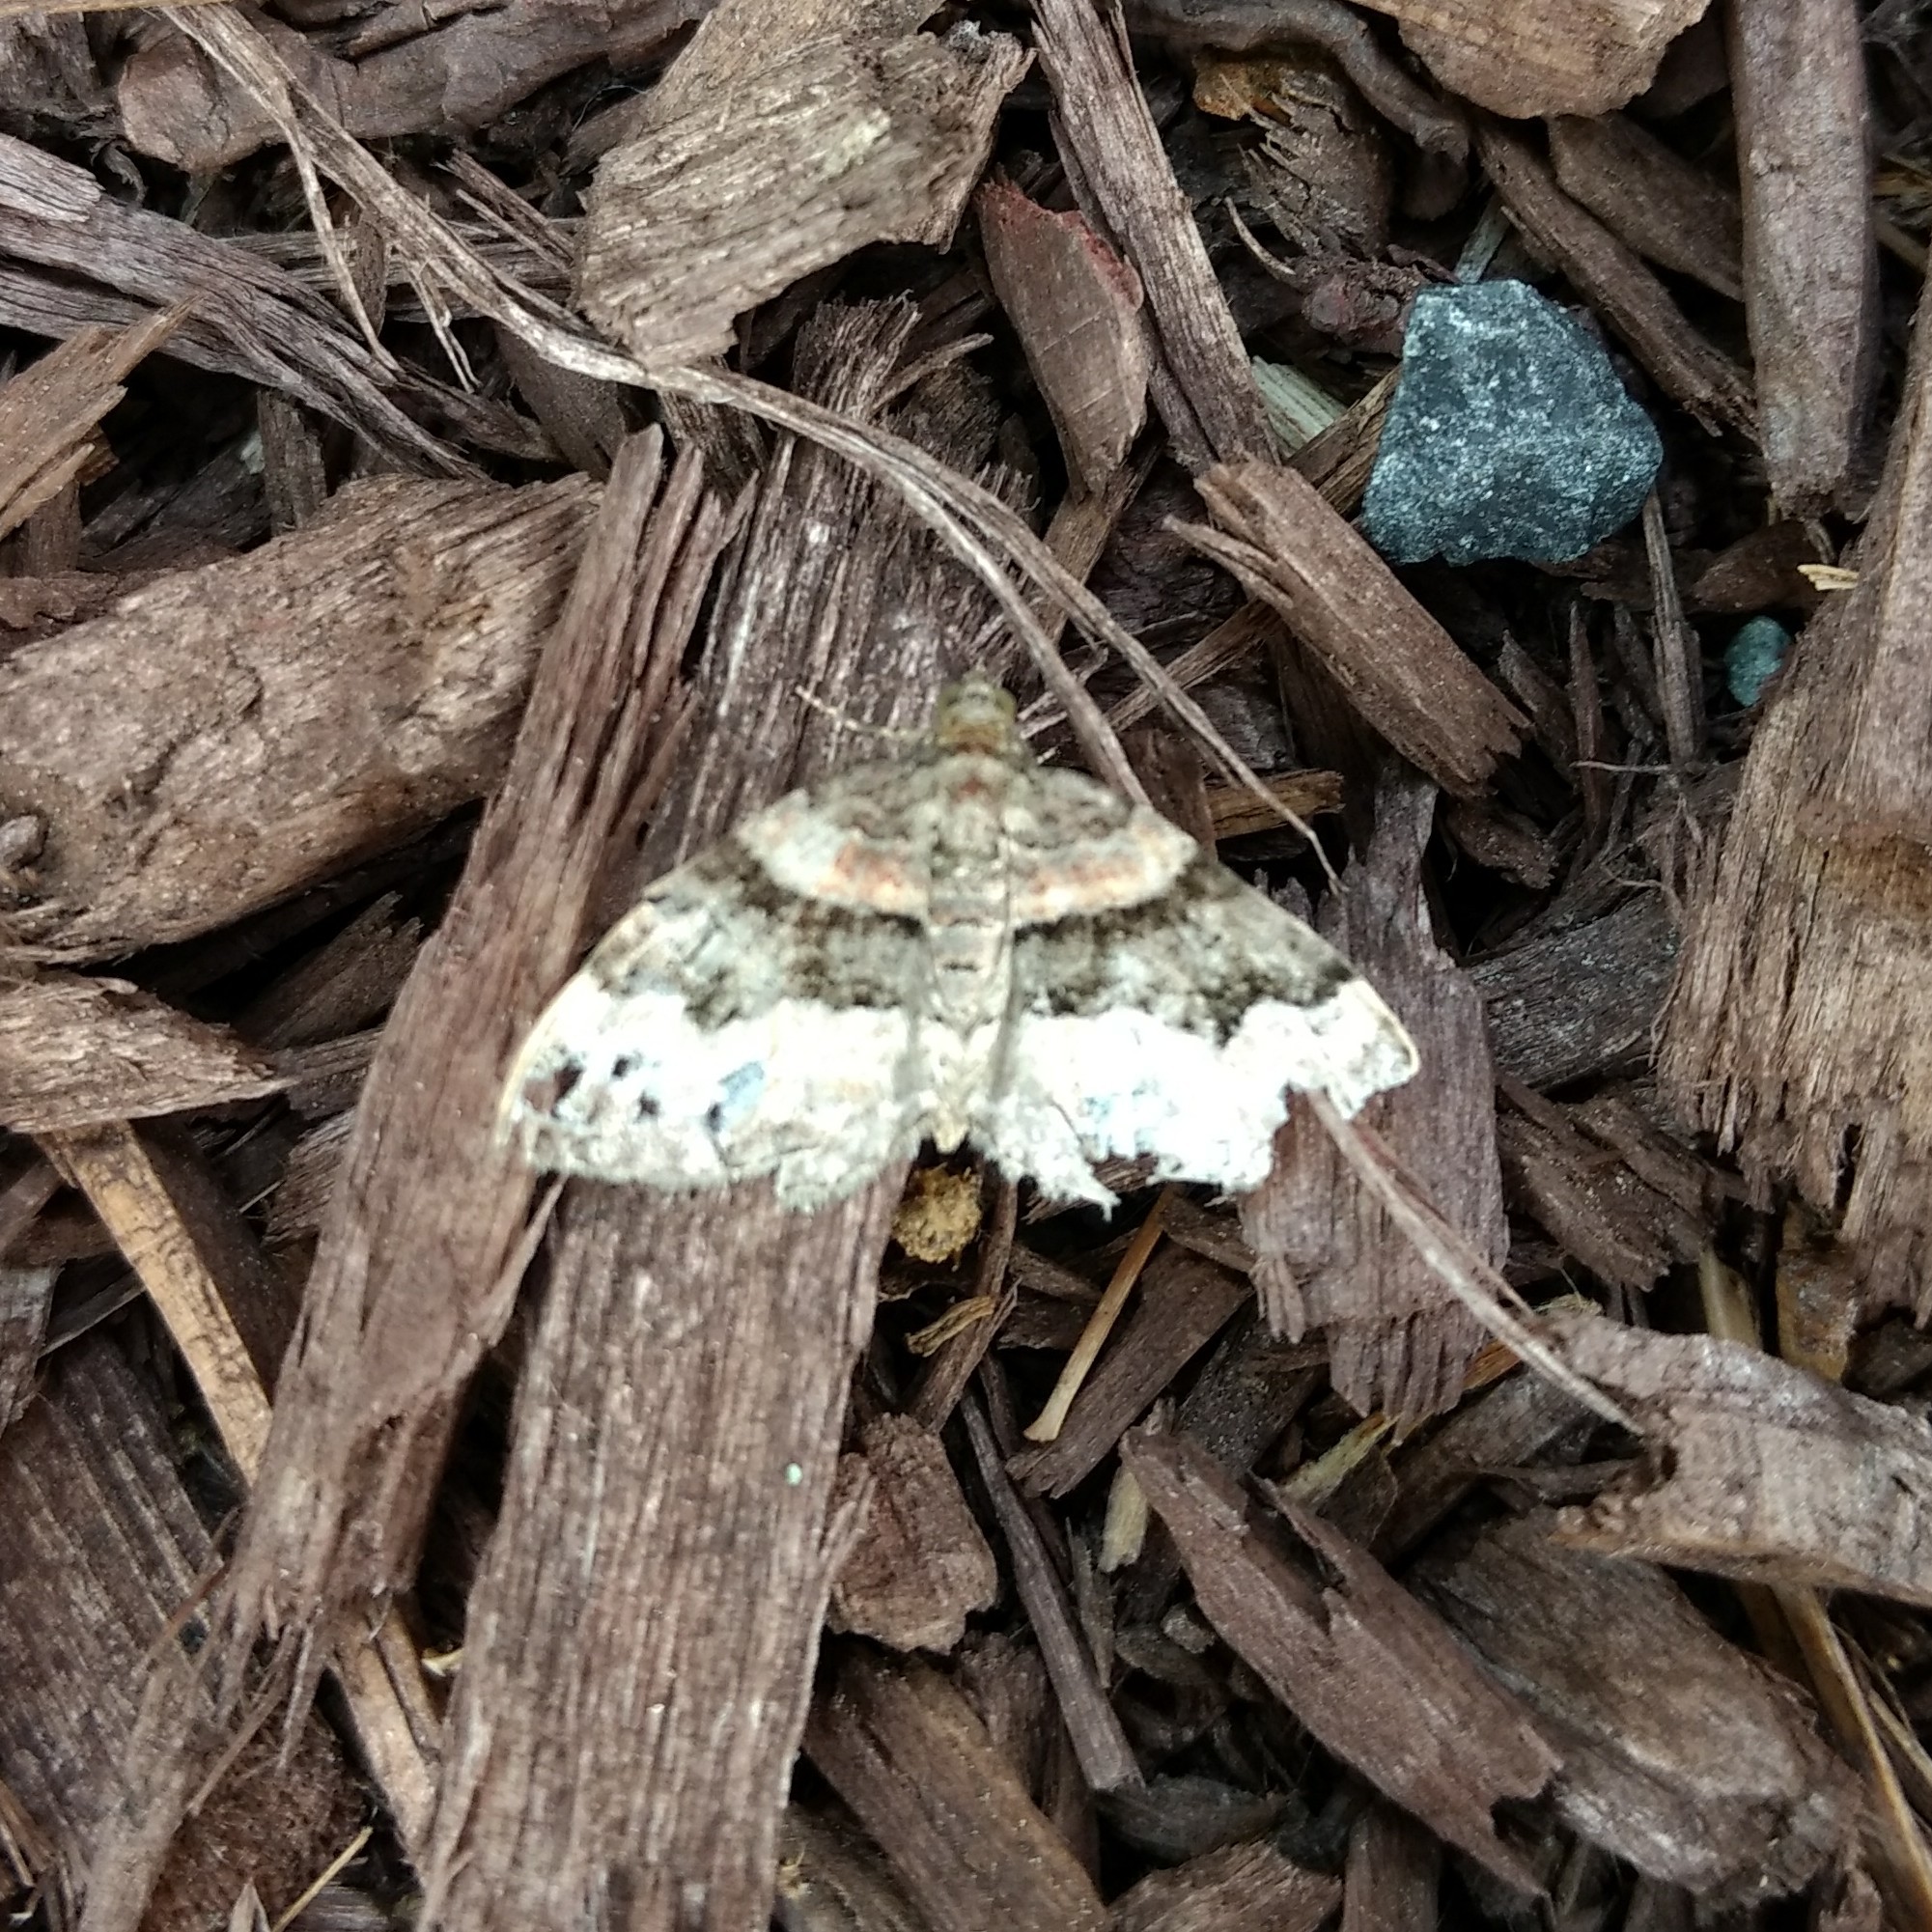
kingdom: Animalia
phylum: Arthropoda
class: Insecta
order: Lepidoptera
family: Geometridae
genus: Xanthorhoe
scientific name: Xanthorhoe ferrugata
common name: Dark-barred twin-spot carpet
